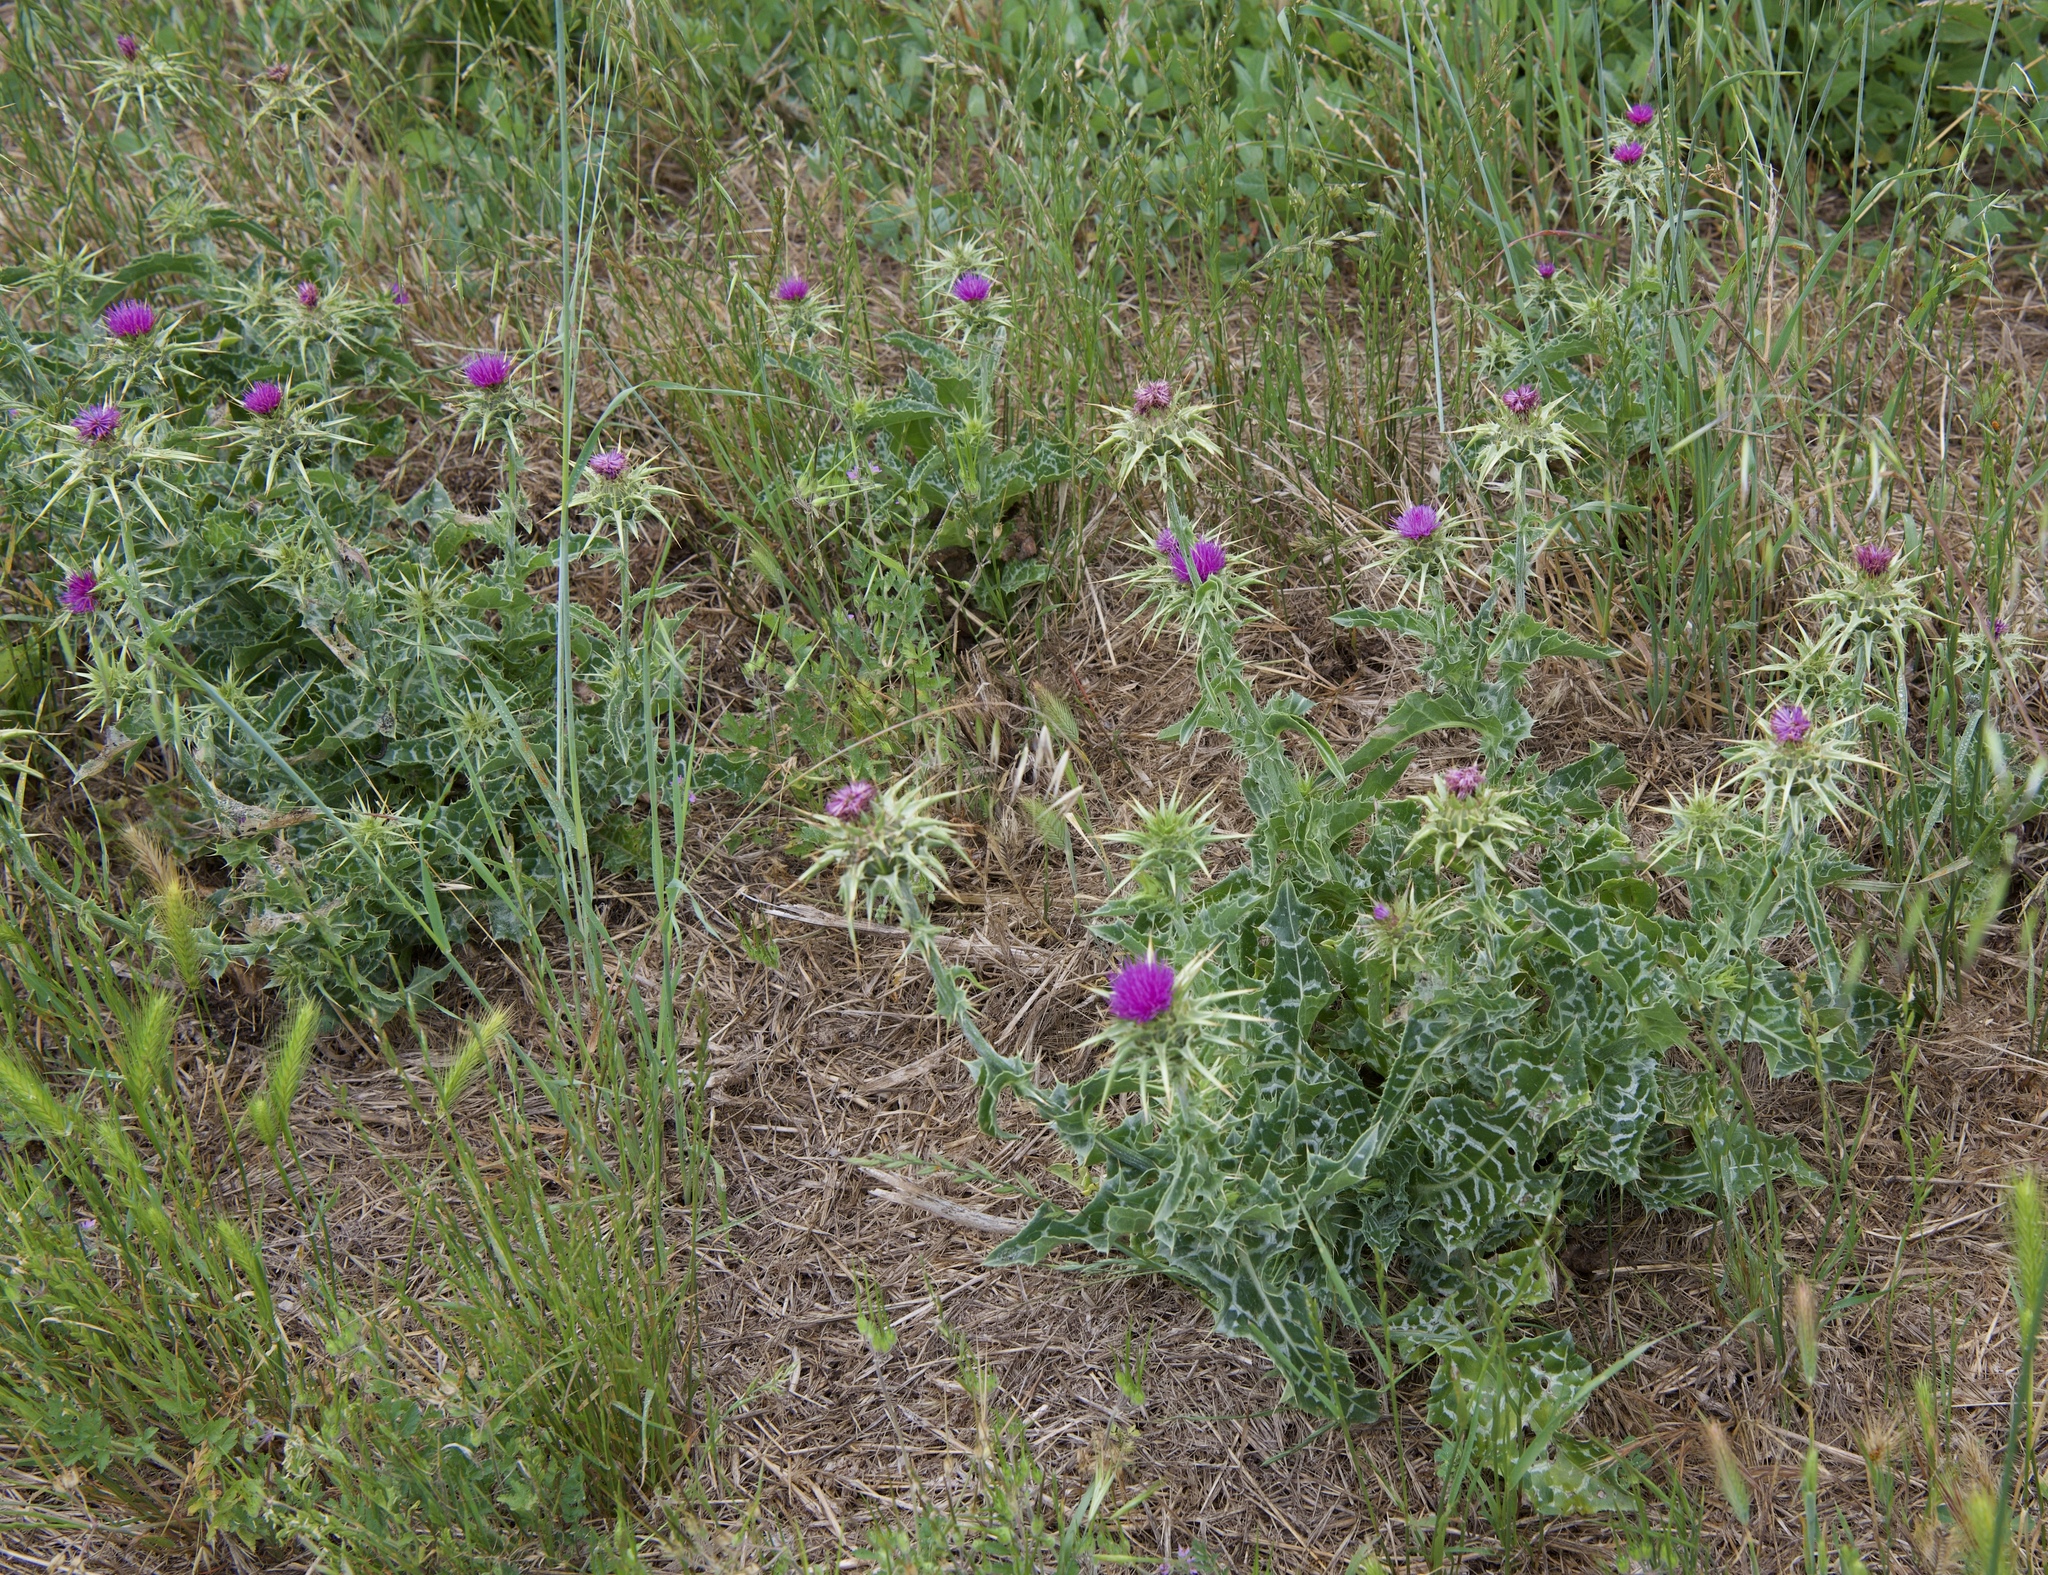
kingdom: Plantae
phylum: Tracheophyta
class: Magnoliopsida
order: Asterales
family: Asteraceae
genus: Silybum
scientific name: Silybum marianum
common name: Milk thistle
